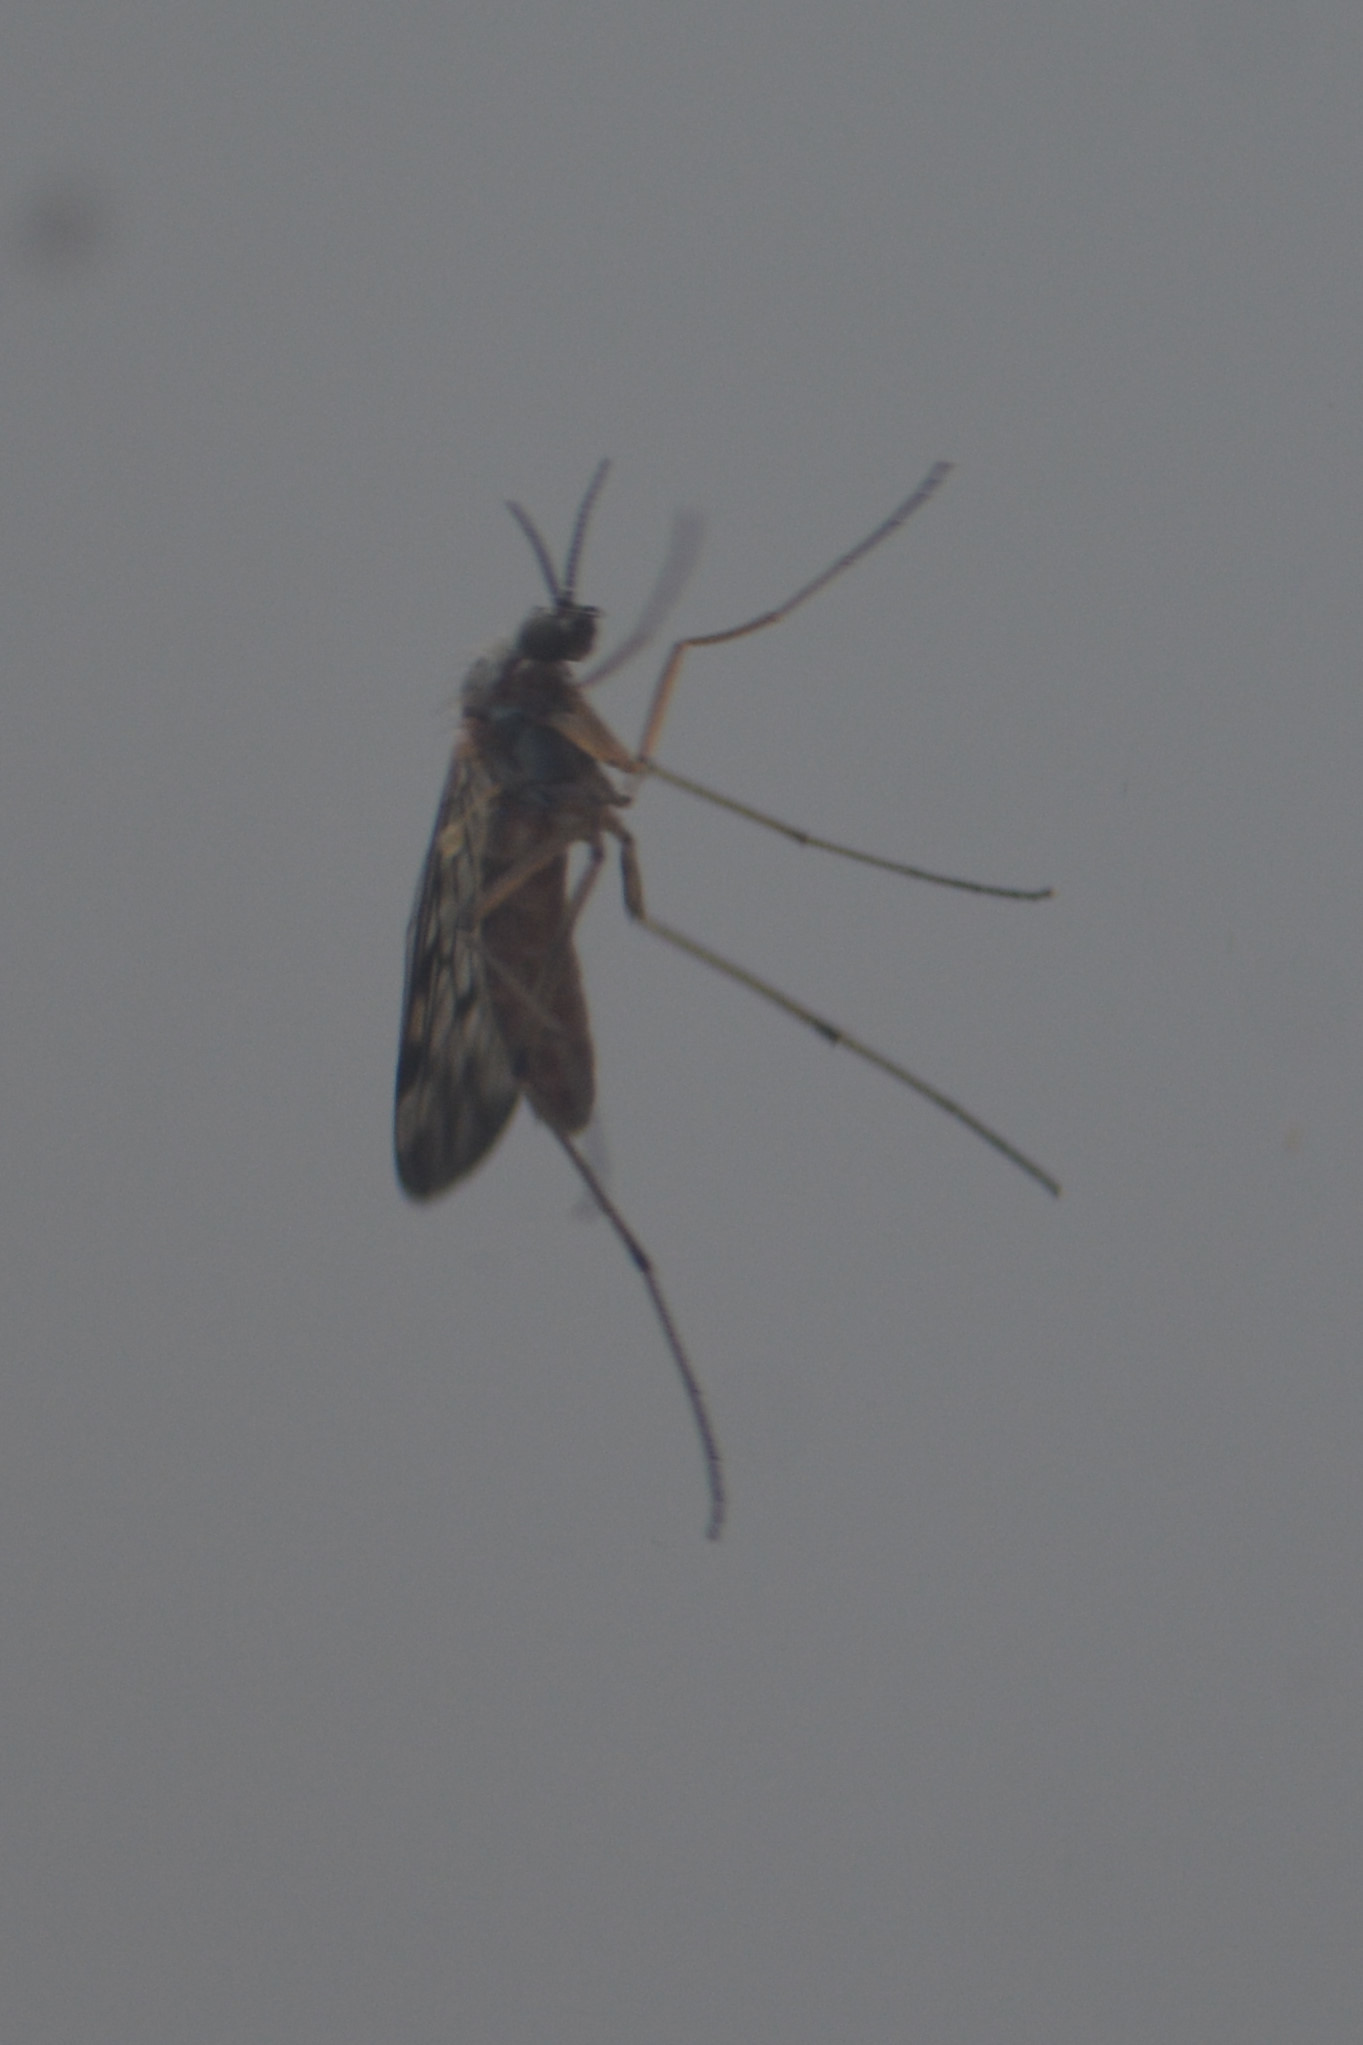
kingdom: Animalia
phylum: Arthropoda
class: Insecta
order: Diptera
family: Anisopodidae
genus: Sylvicola
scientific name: Sylvicola
